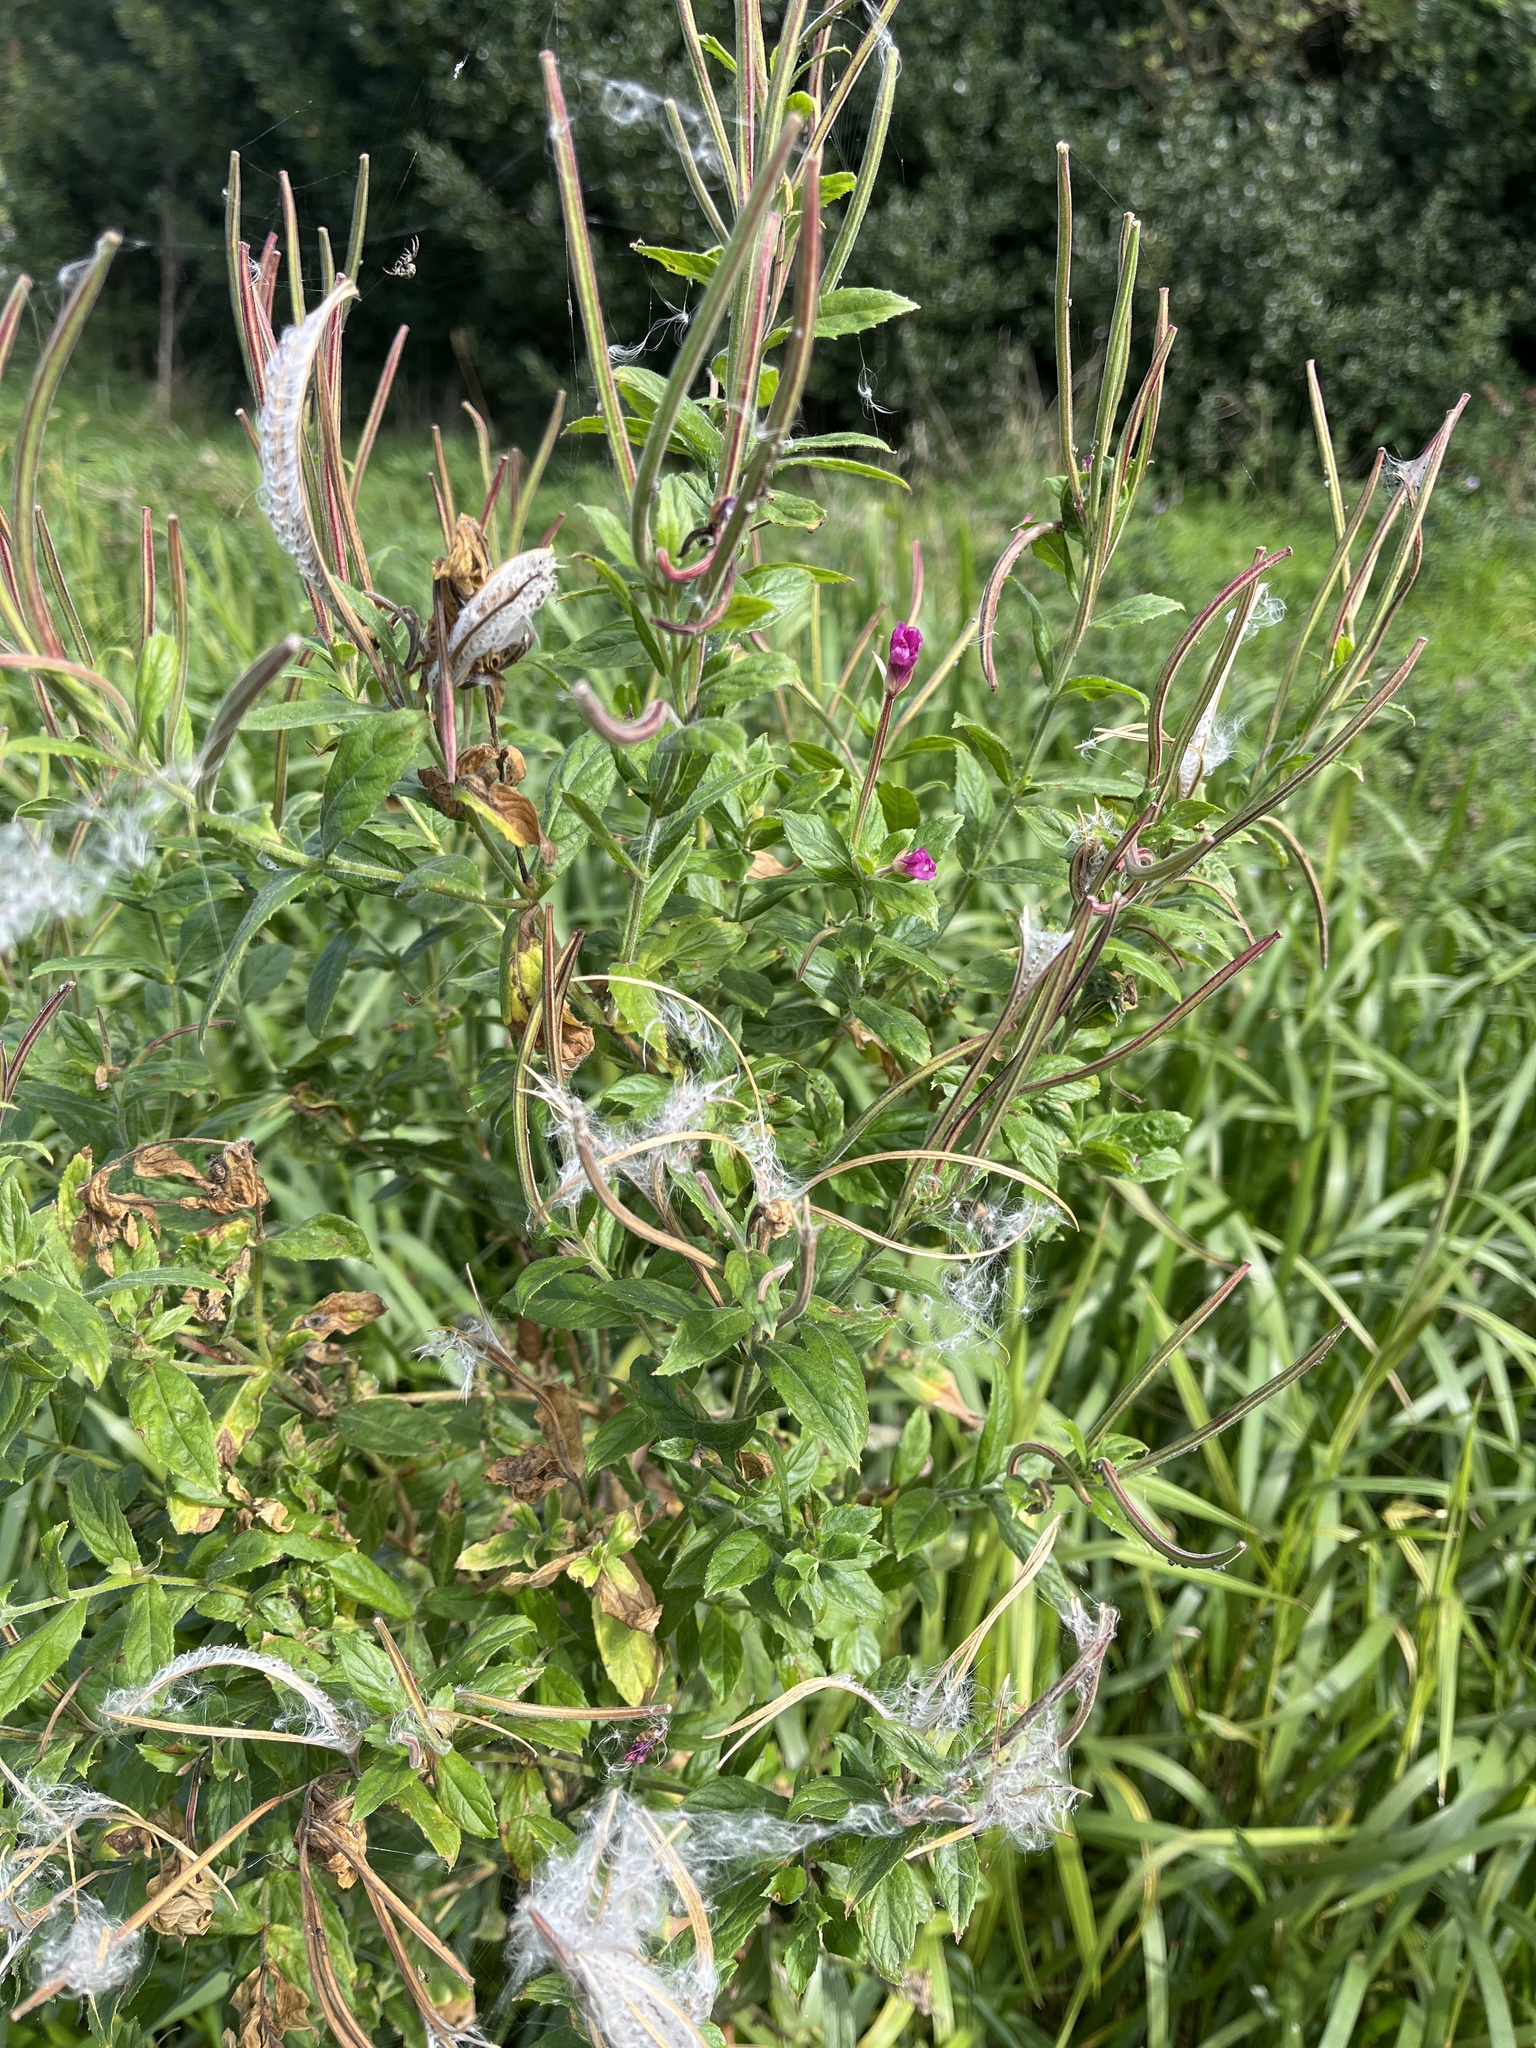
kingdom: Plantae
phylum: Tracheophyta
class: Magnoliopsida
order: Myrtales
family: Onagraceae
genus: Epilobium
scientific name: Epilobium hirsutum
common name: Great willowherb
